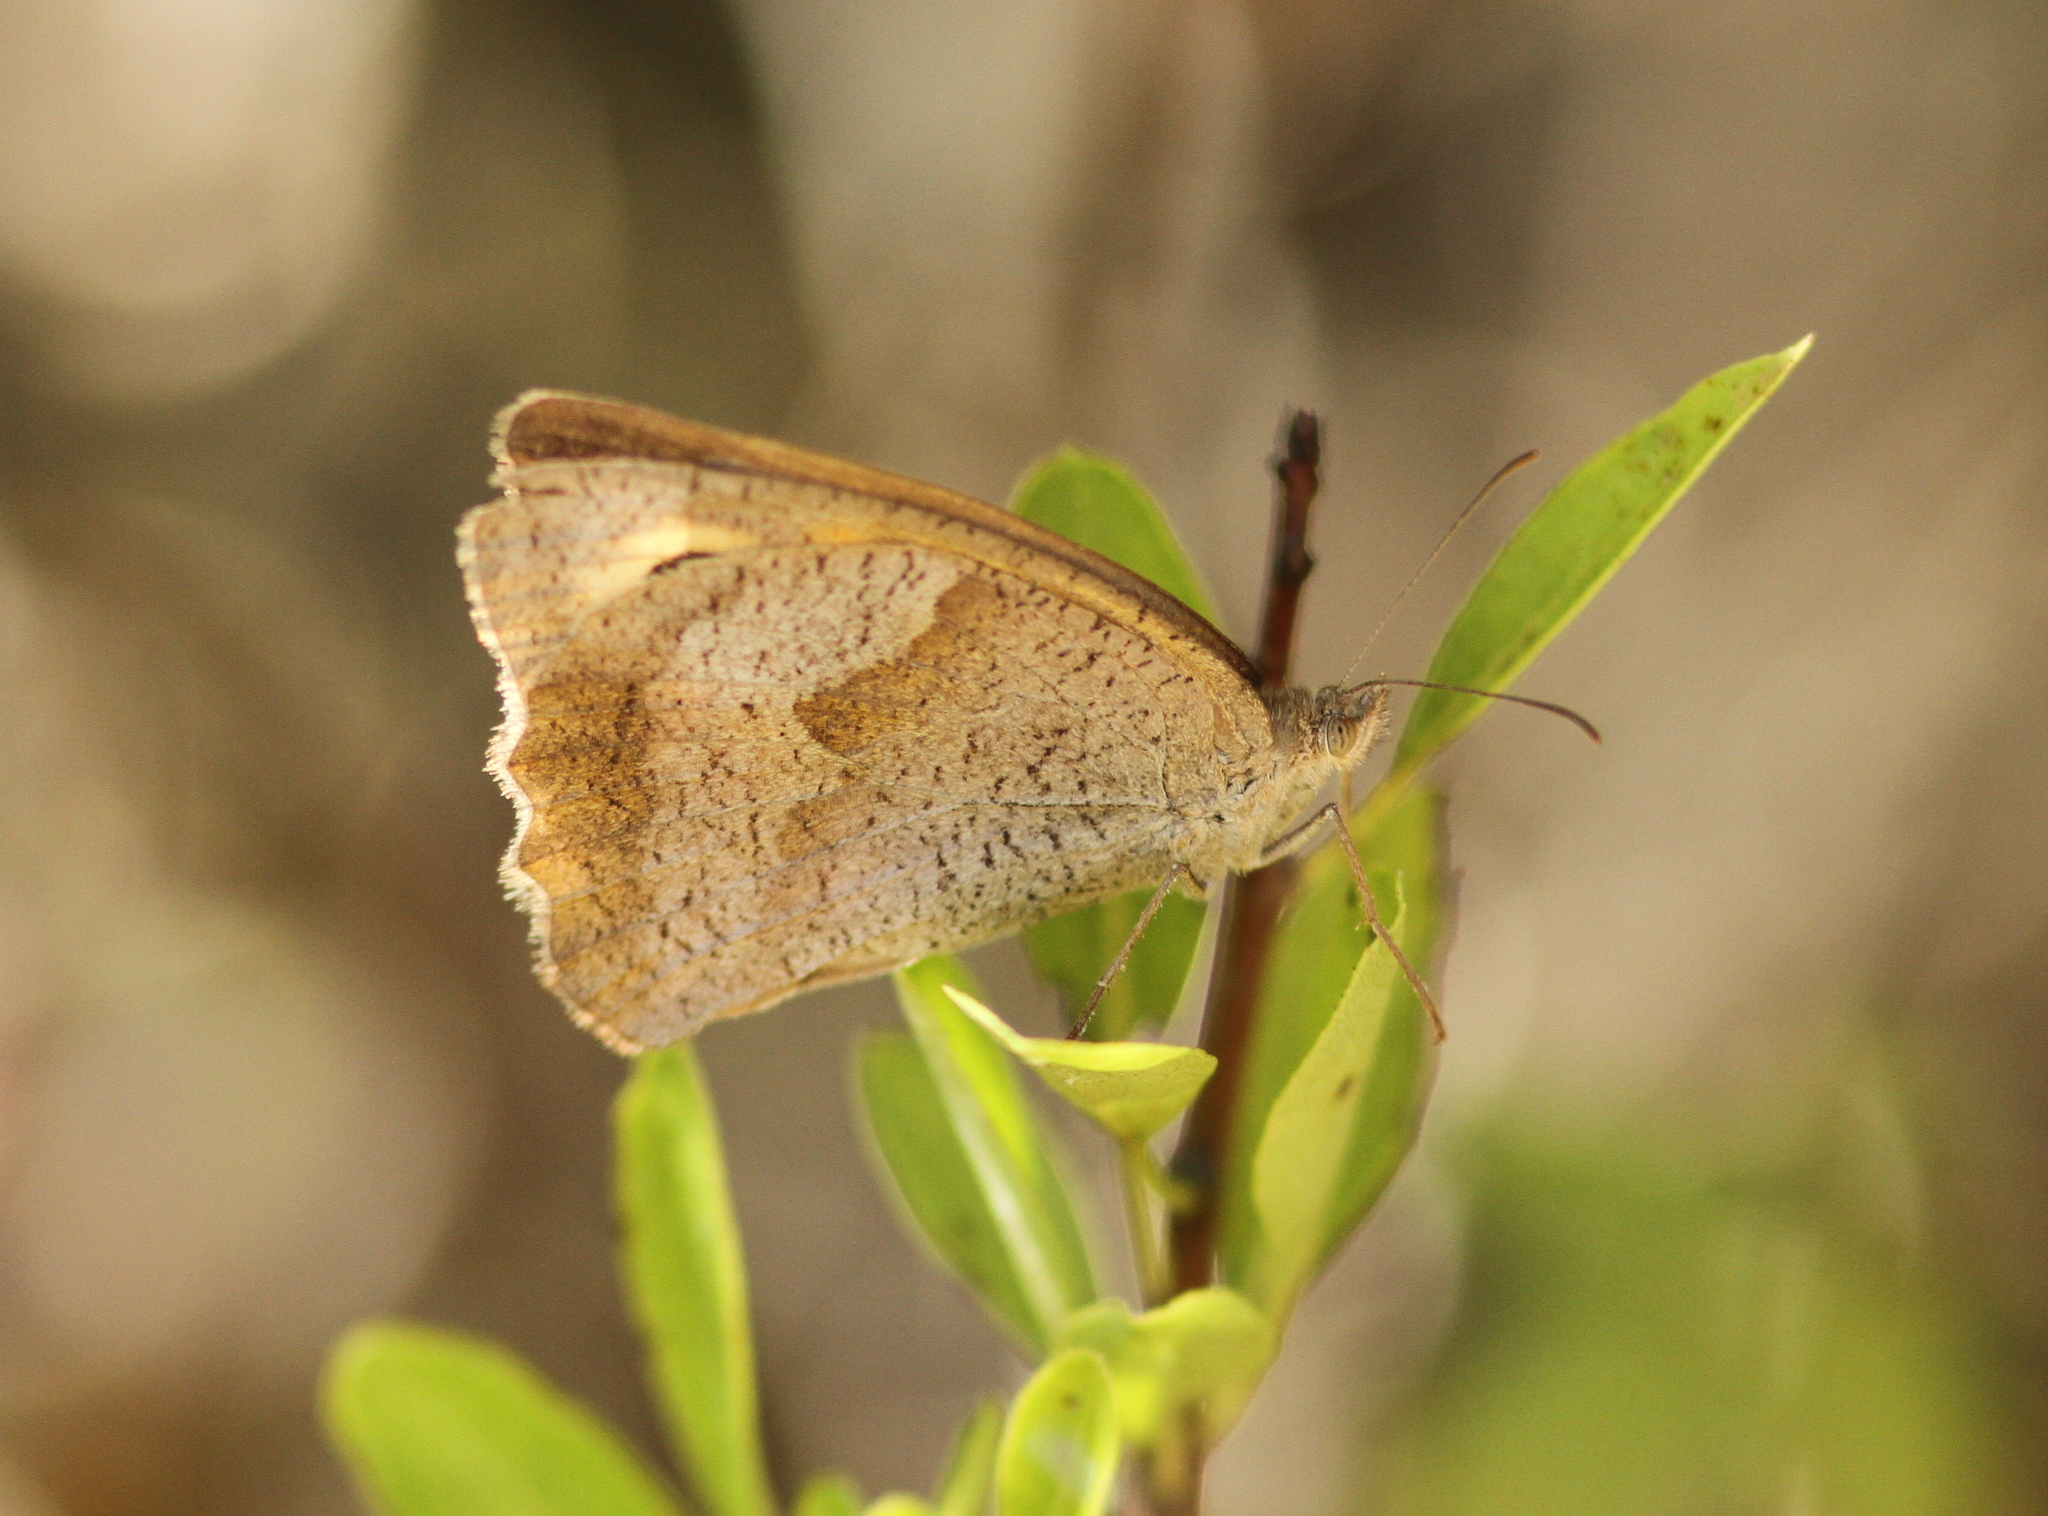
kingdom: Animalia
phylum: Arthropoda
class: Insecta
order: Lepidoptera
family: Nymphalidae
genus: Maniola
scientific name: Maniola jurtina
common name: Meadow brown
